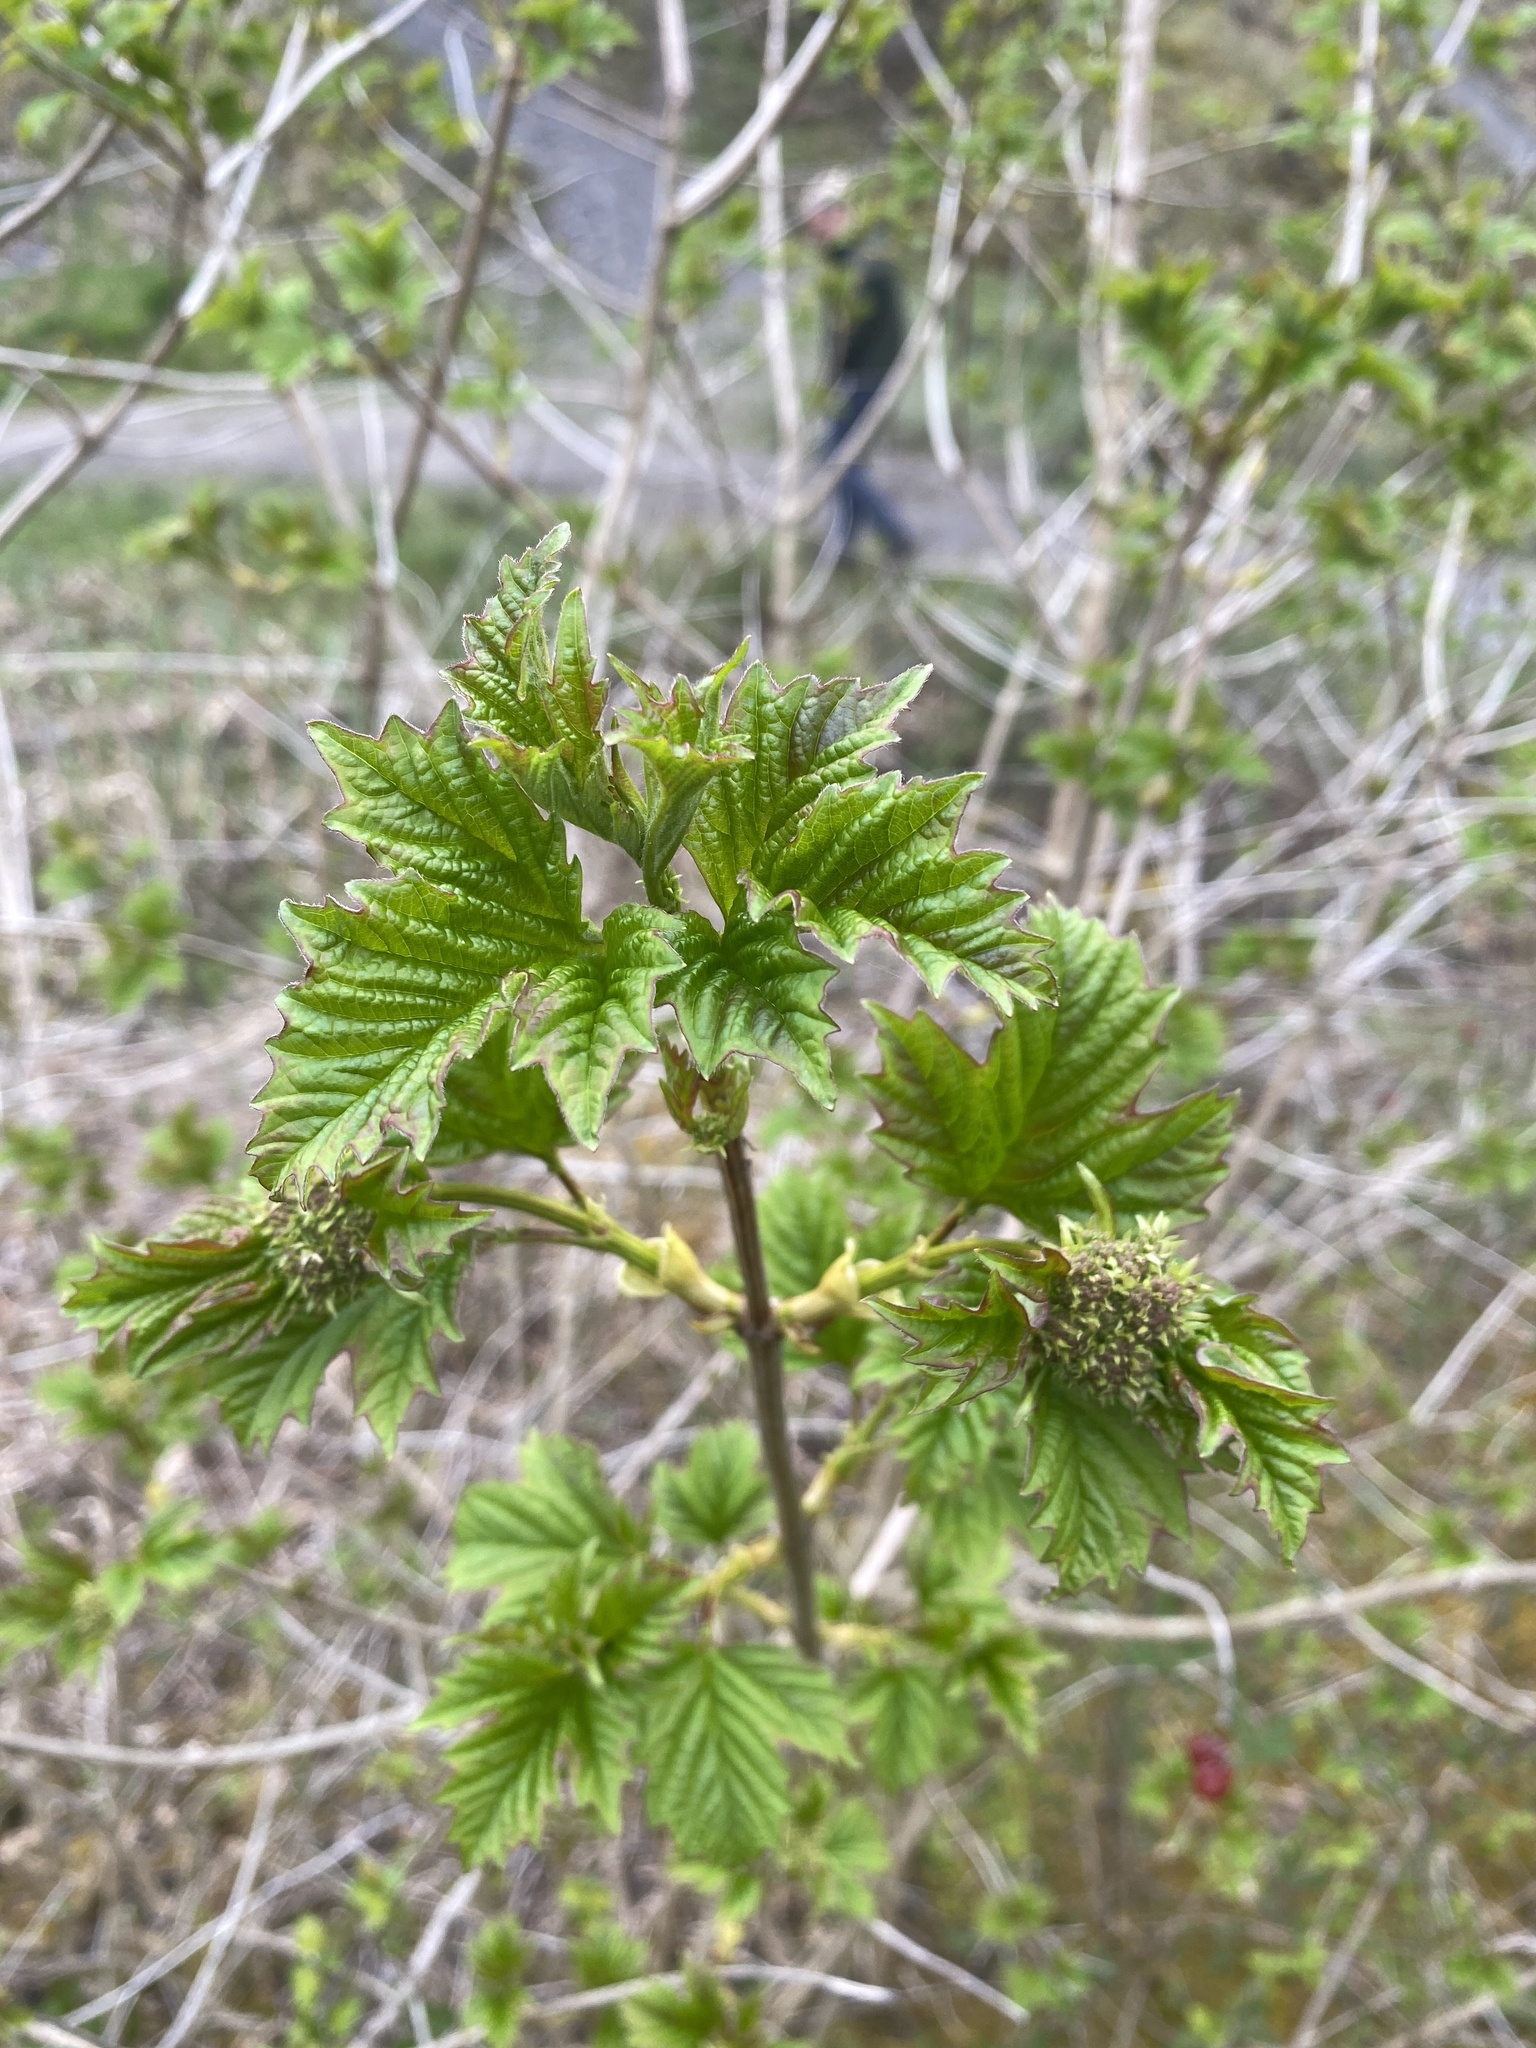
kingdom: Plantae
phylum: Tracheophyta
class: Magnoliopsida
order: Dipsacales
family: Viburnaceae
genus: Viburnum
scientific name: Viburnum opulus
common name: Guelder-rose
